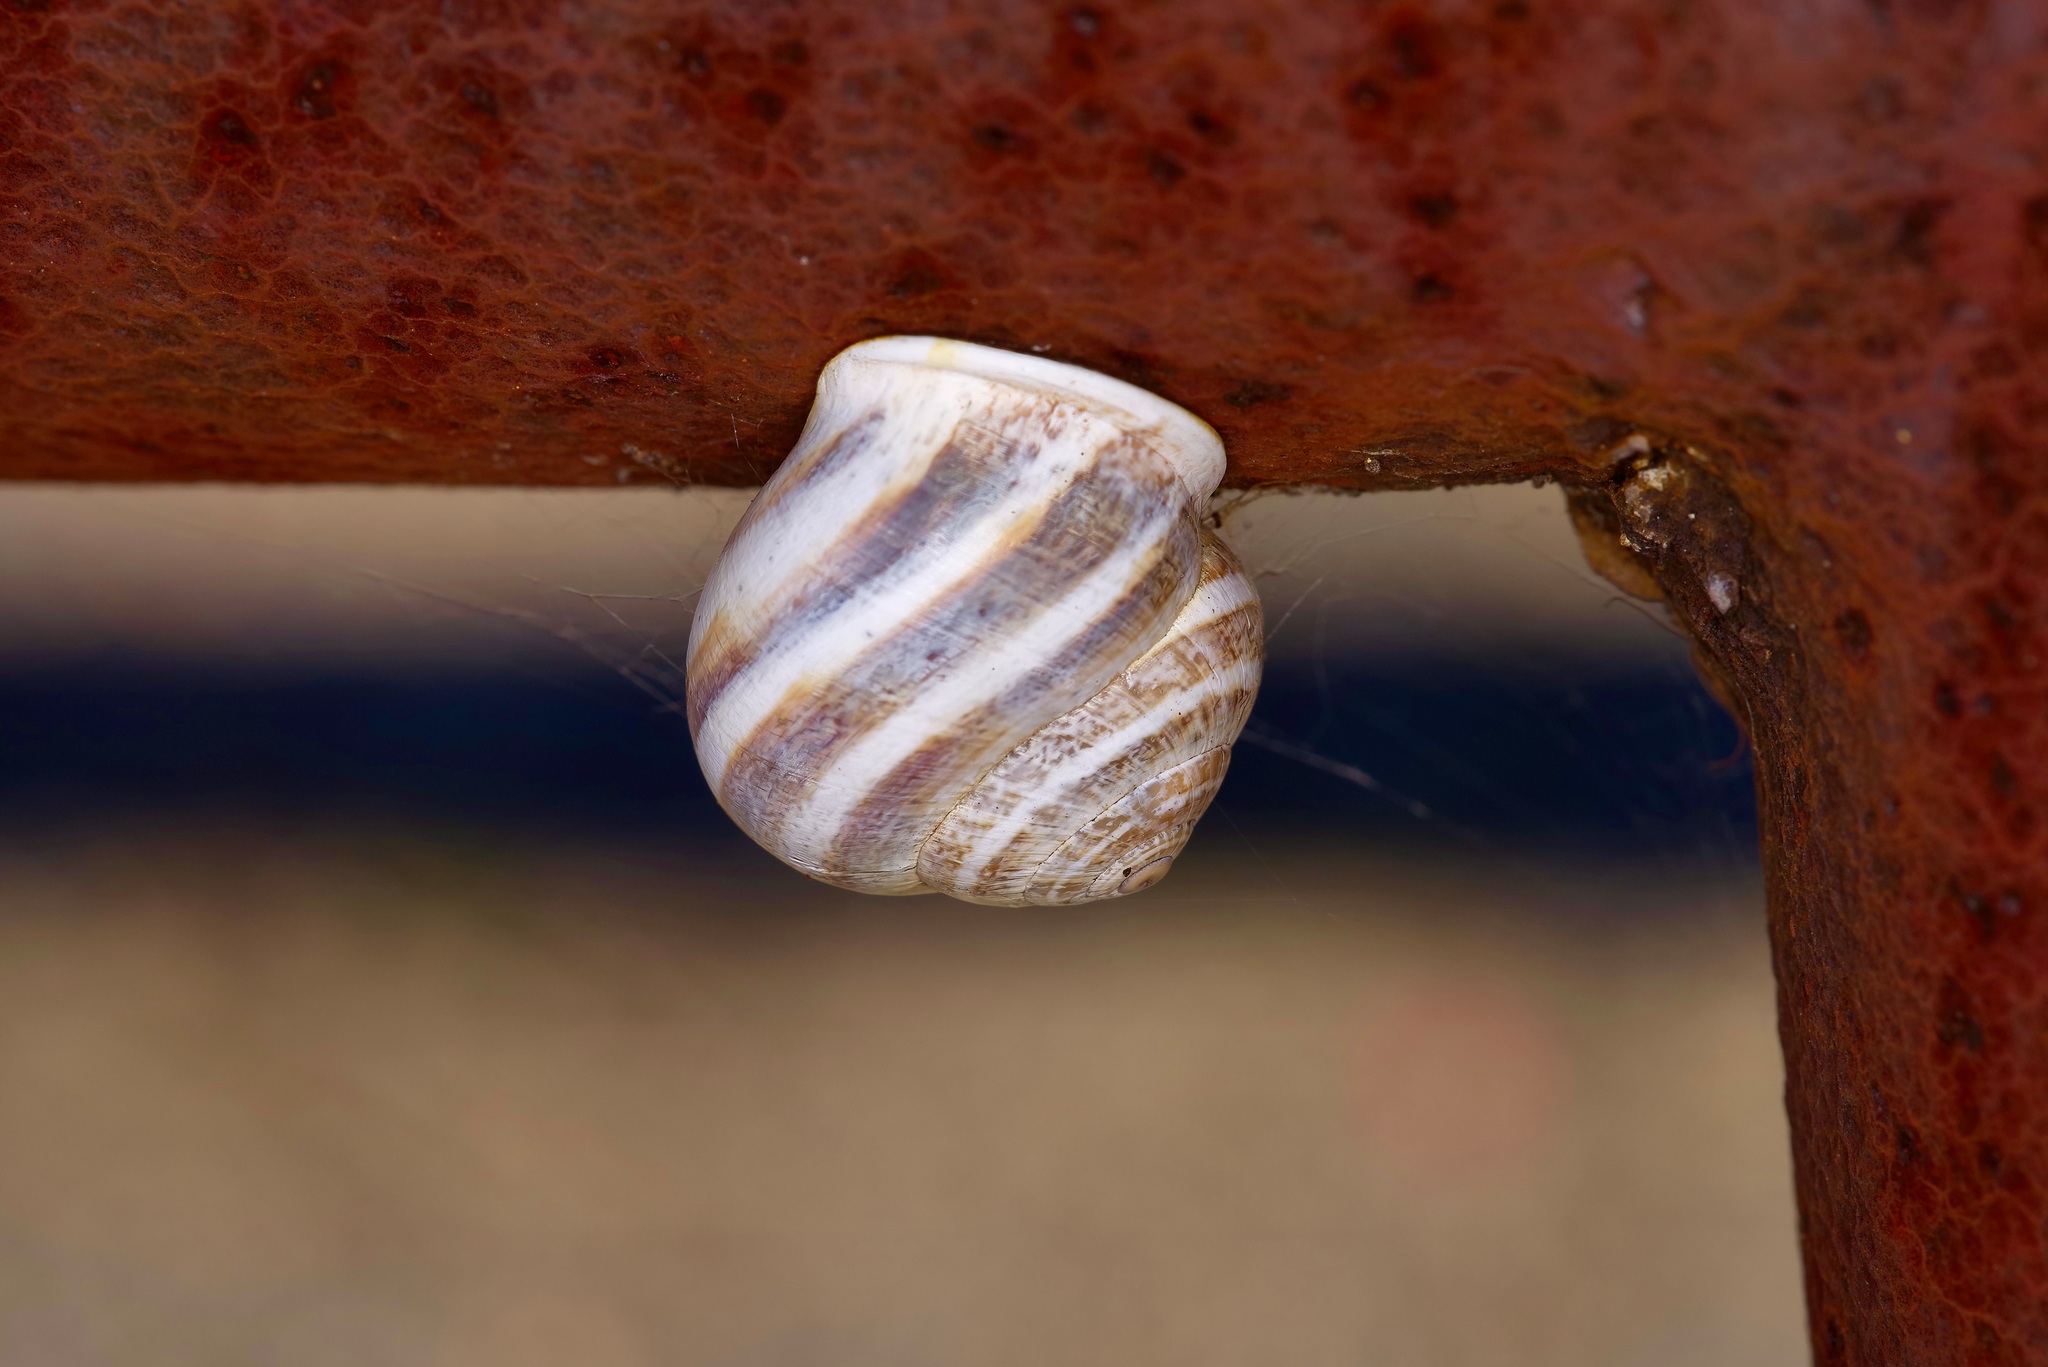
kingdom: Animalia
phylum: Mollusca
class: Gastropoda
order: Stylommatophora
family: Helicidae
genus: Otala
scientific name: Otala lactea
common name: Milk snail
